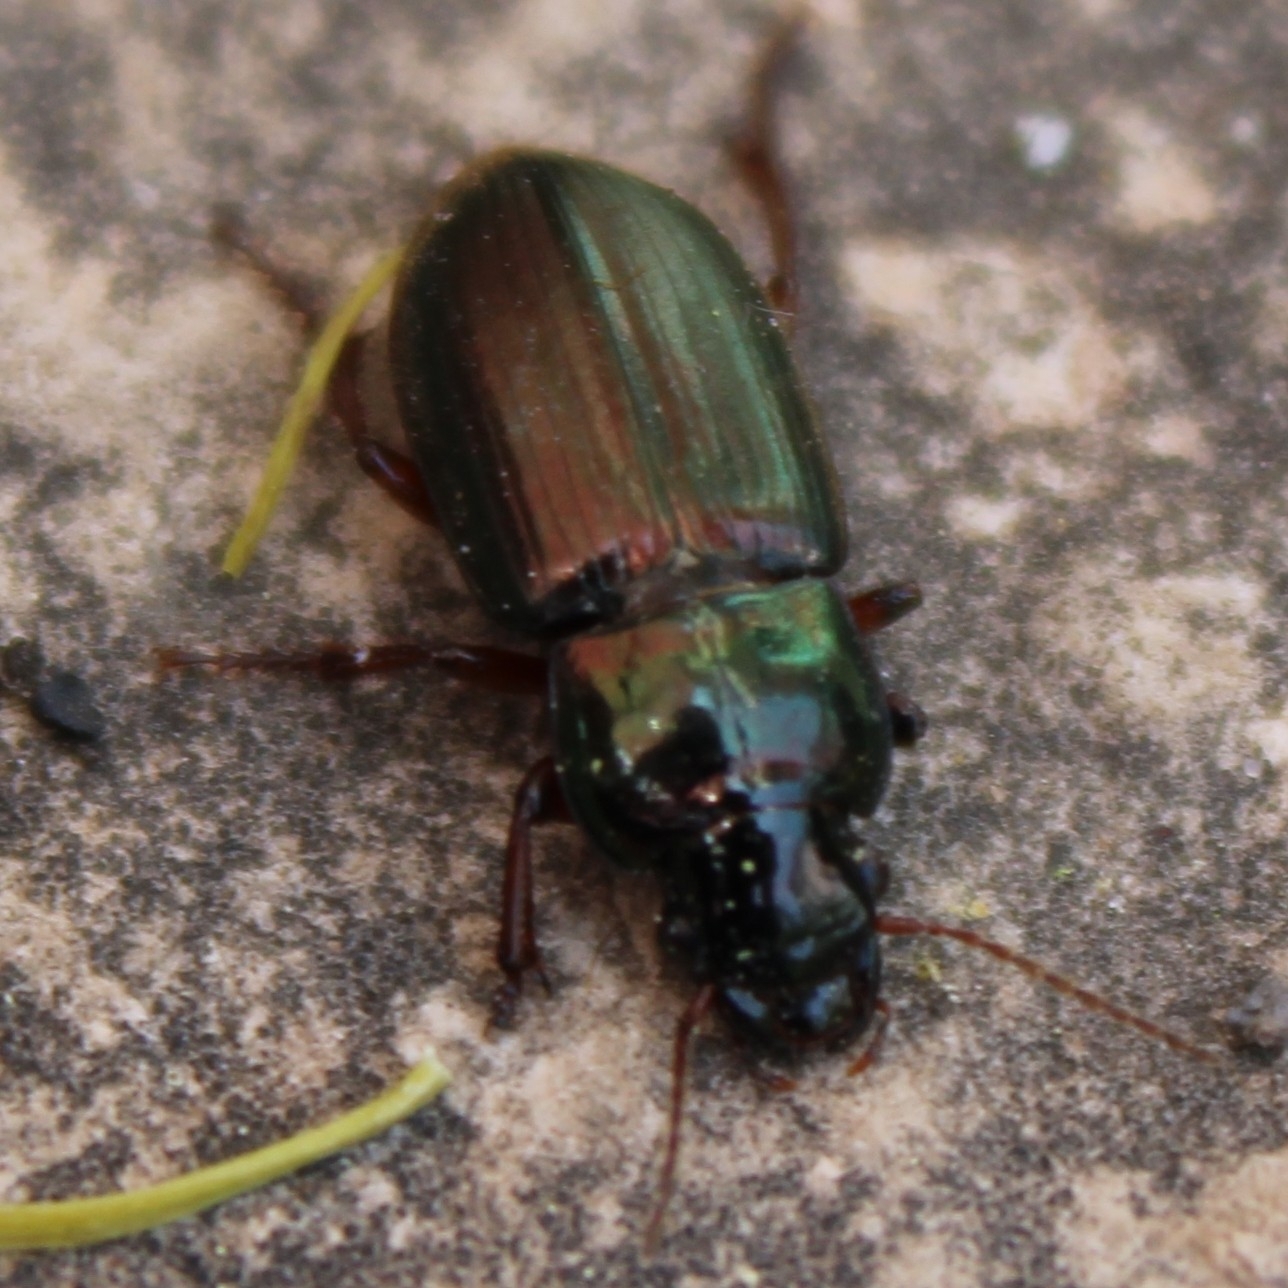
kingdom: Animalia
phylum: Arthropoda
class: Insecta
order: Coleoptera
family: Carabidae
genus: Harpalus
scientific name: Harpalus affinis
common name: Polychrome harp ground beetle
